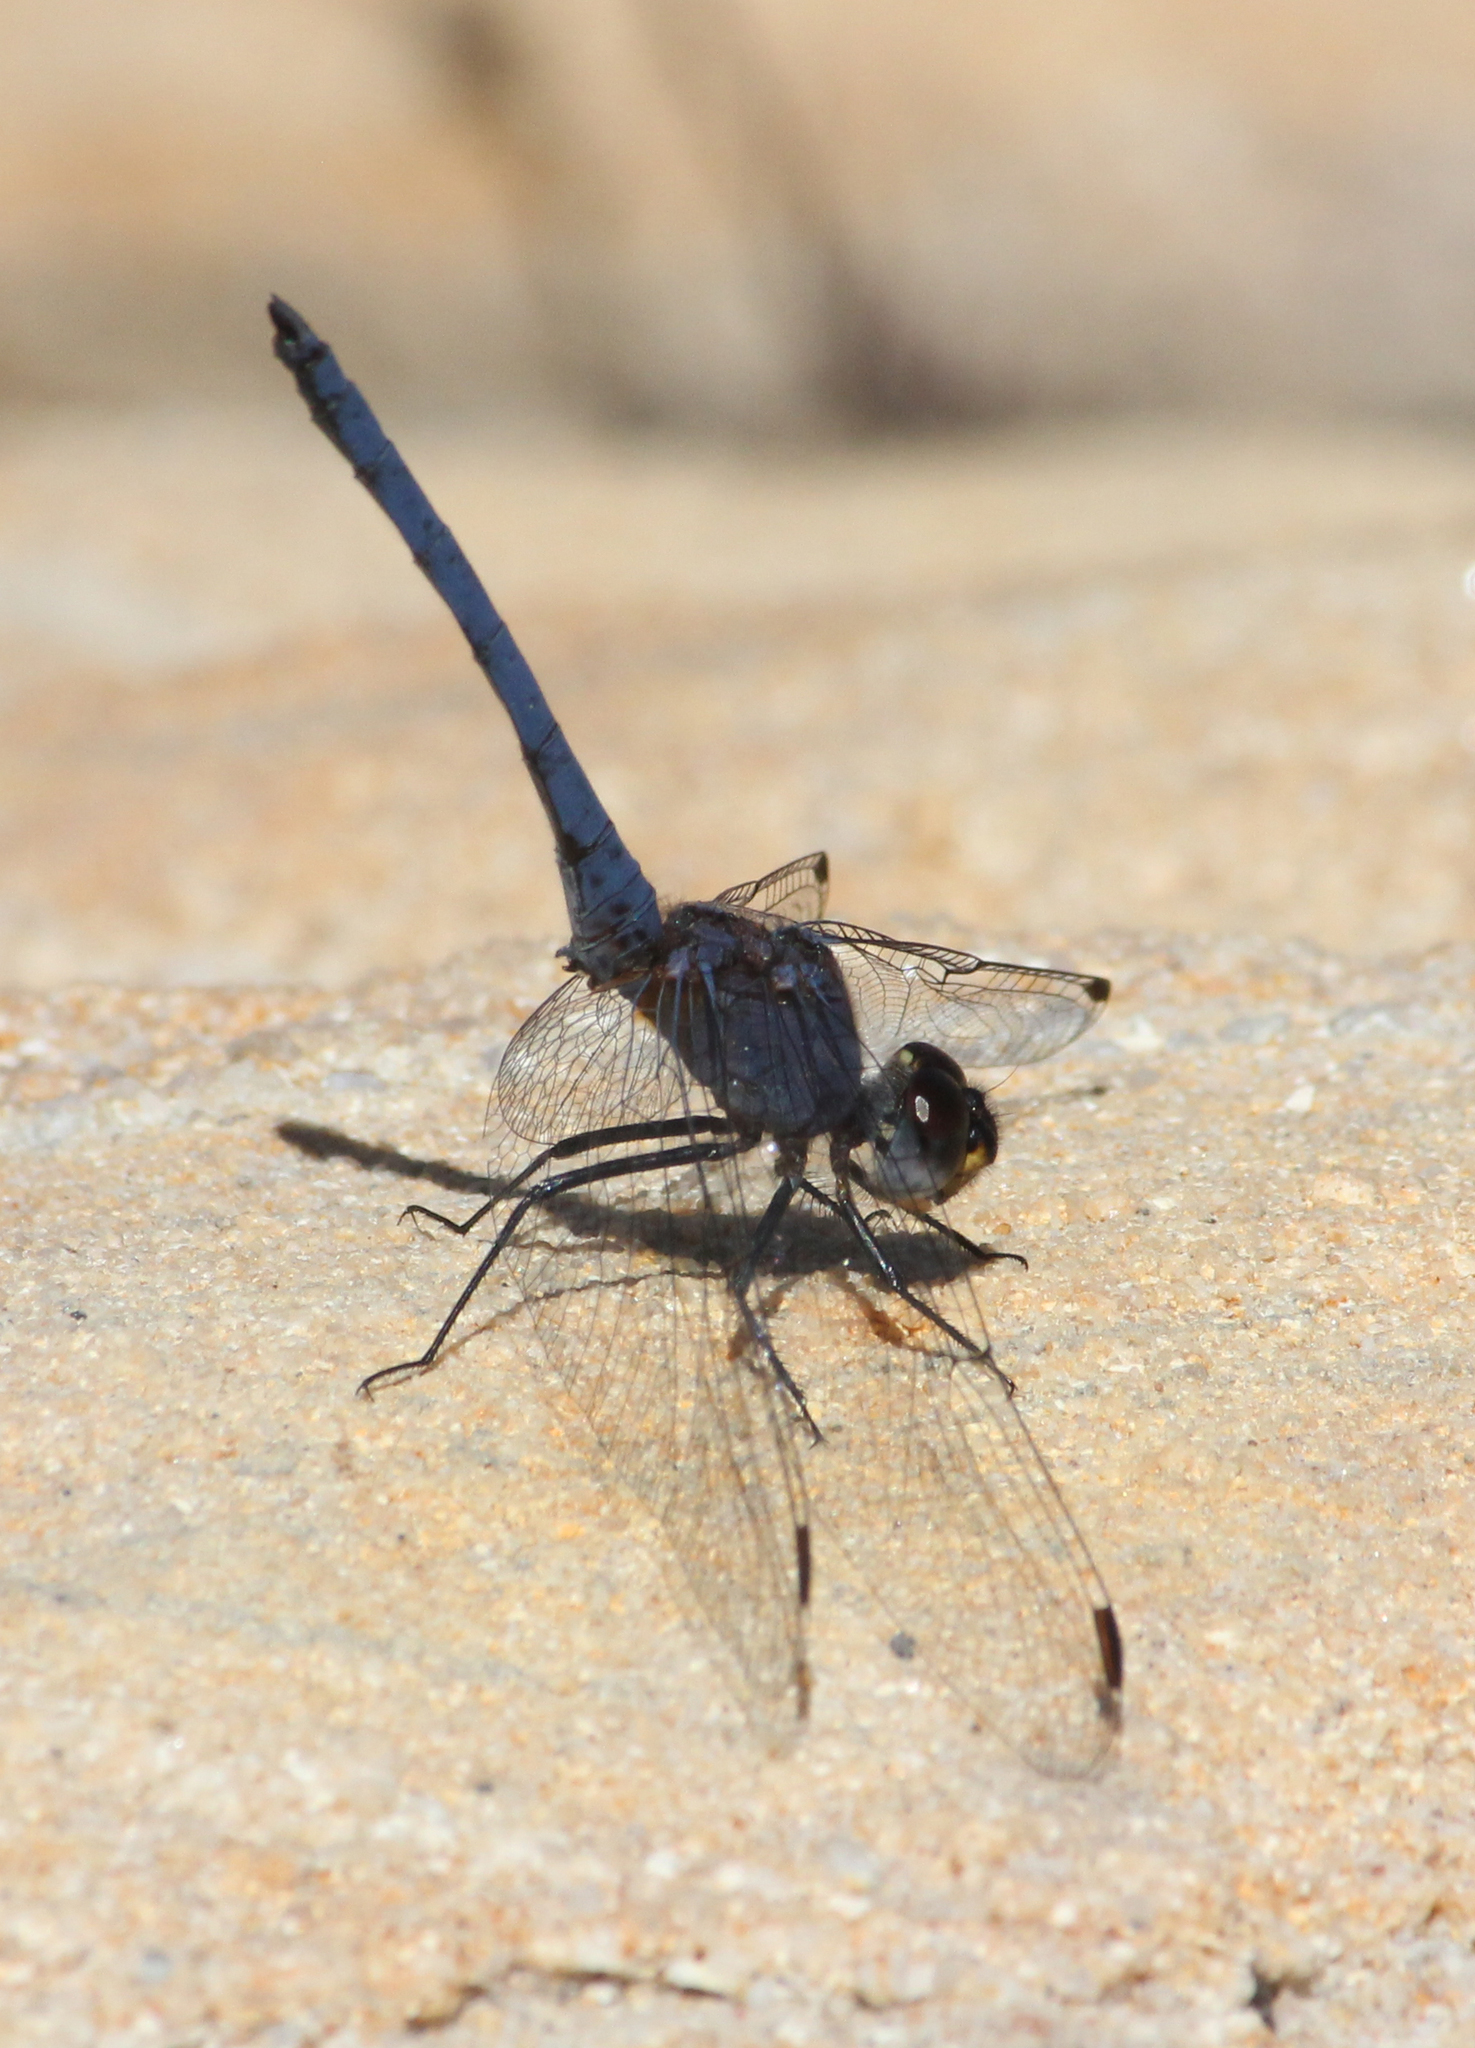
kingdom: Animalia
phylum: Arthropoda
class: Insecta
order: Odonata
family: Libellulidae
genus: Trithemis
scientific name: Trithemis furva
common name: Dark dropwing
